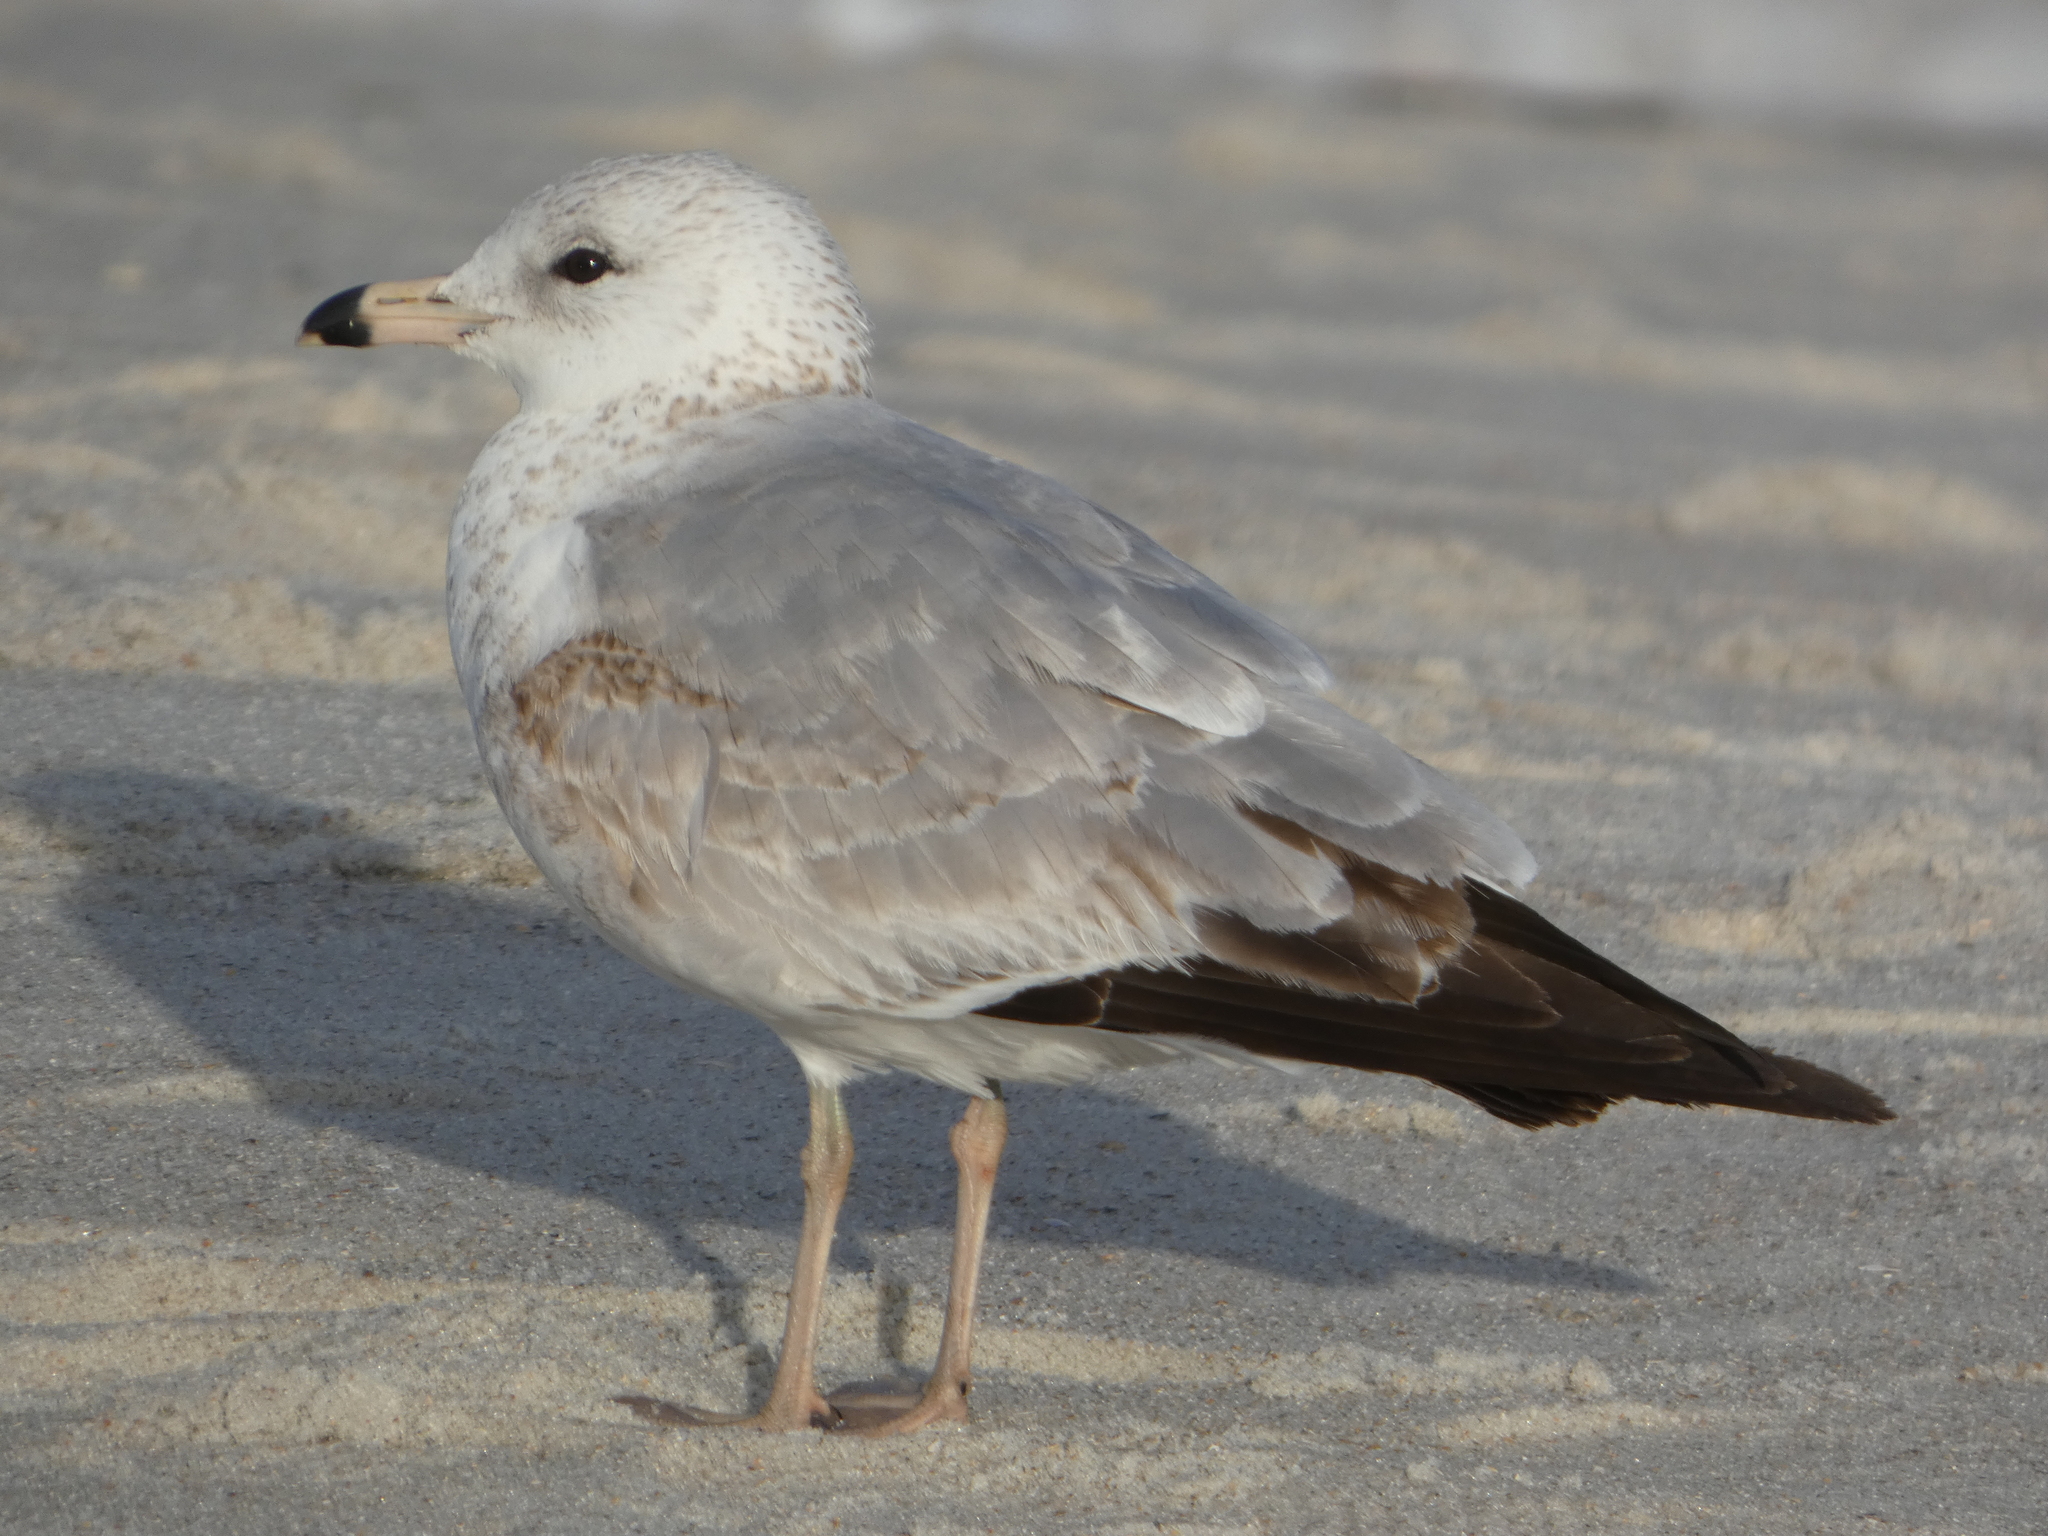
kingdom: Animalia
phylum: Chordata
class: Aves
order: Charadriiformes
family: Laridae
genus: Larus
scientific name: Larus delawarensis
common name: Ring-billed gull
